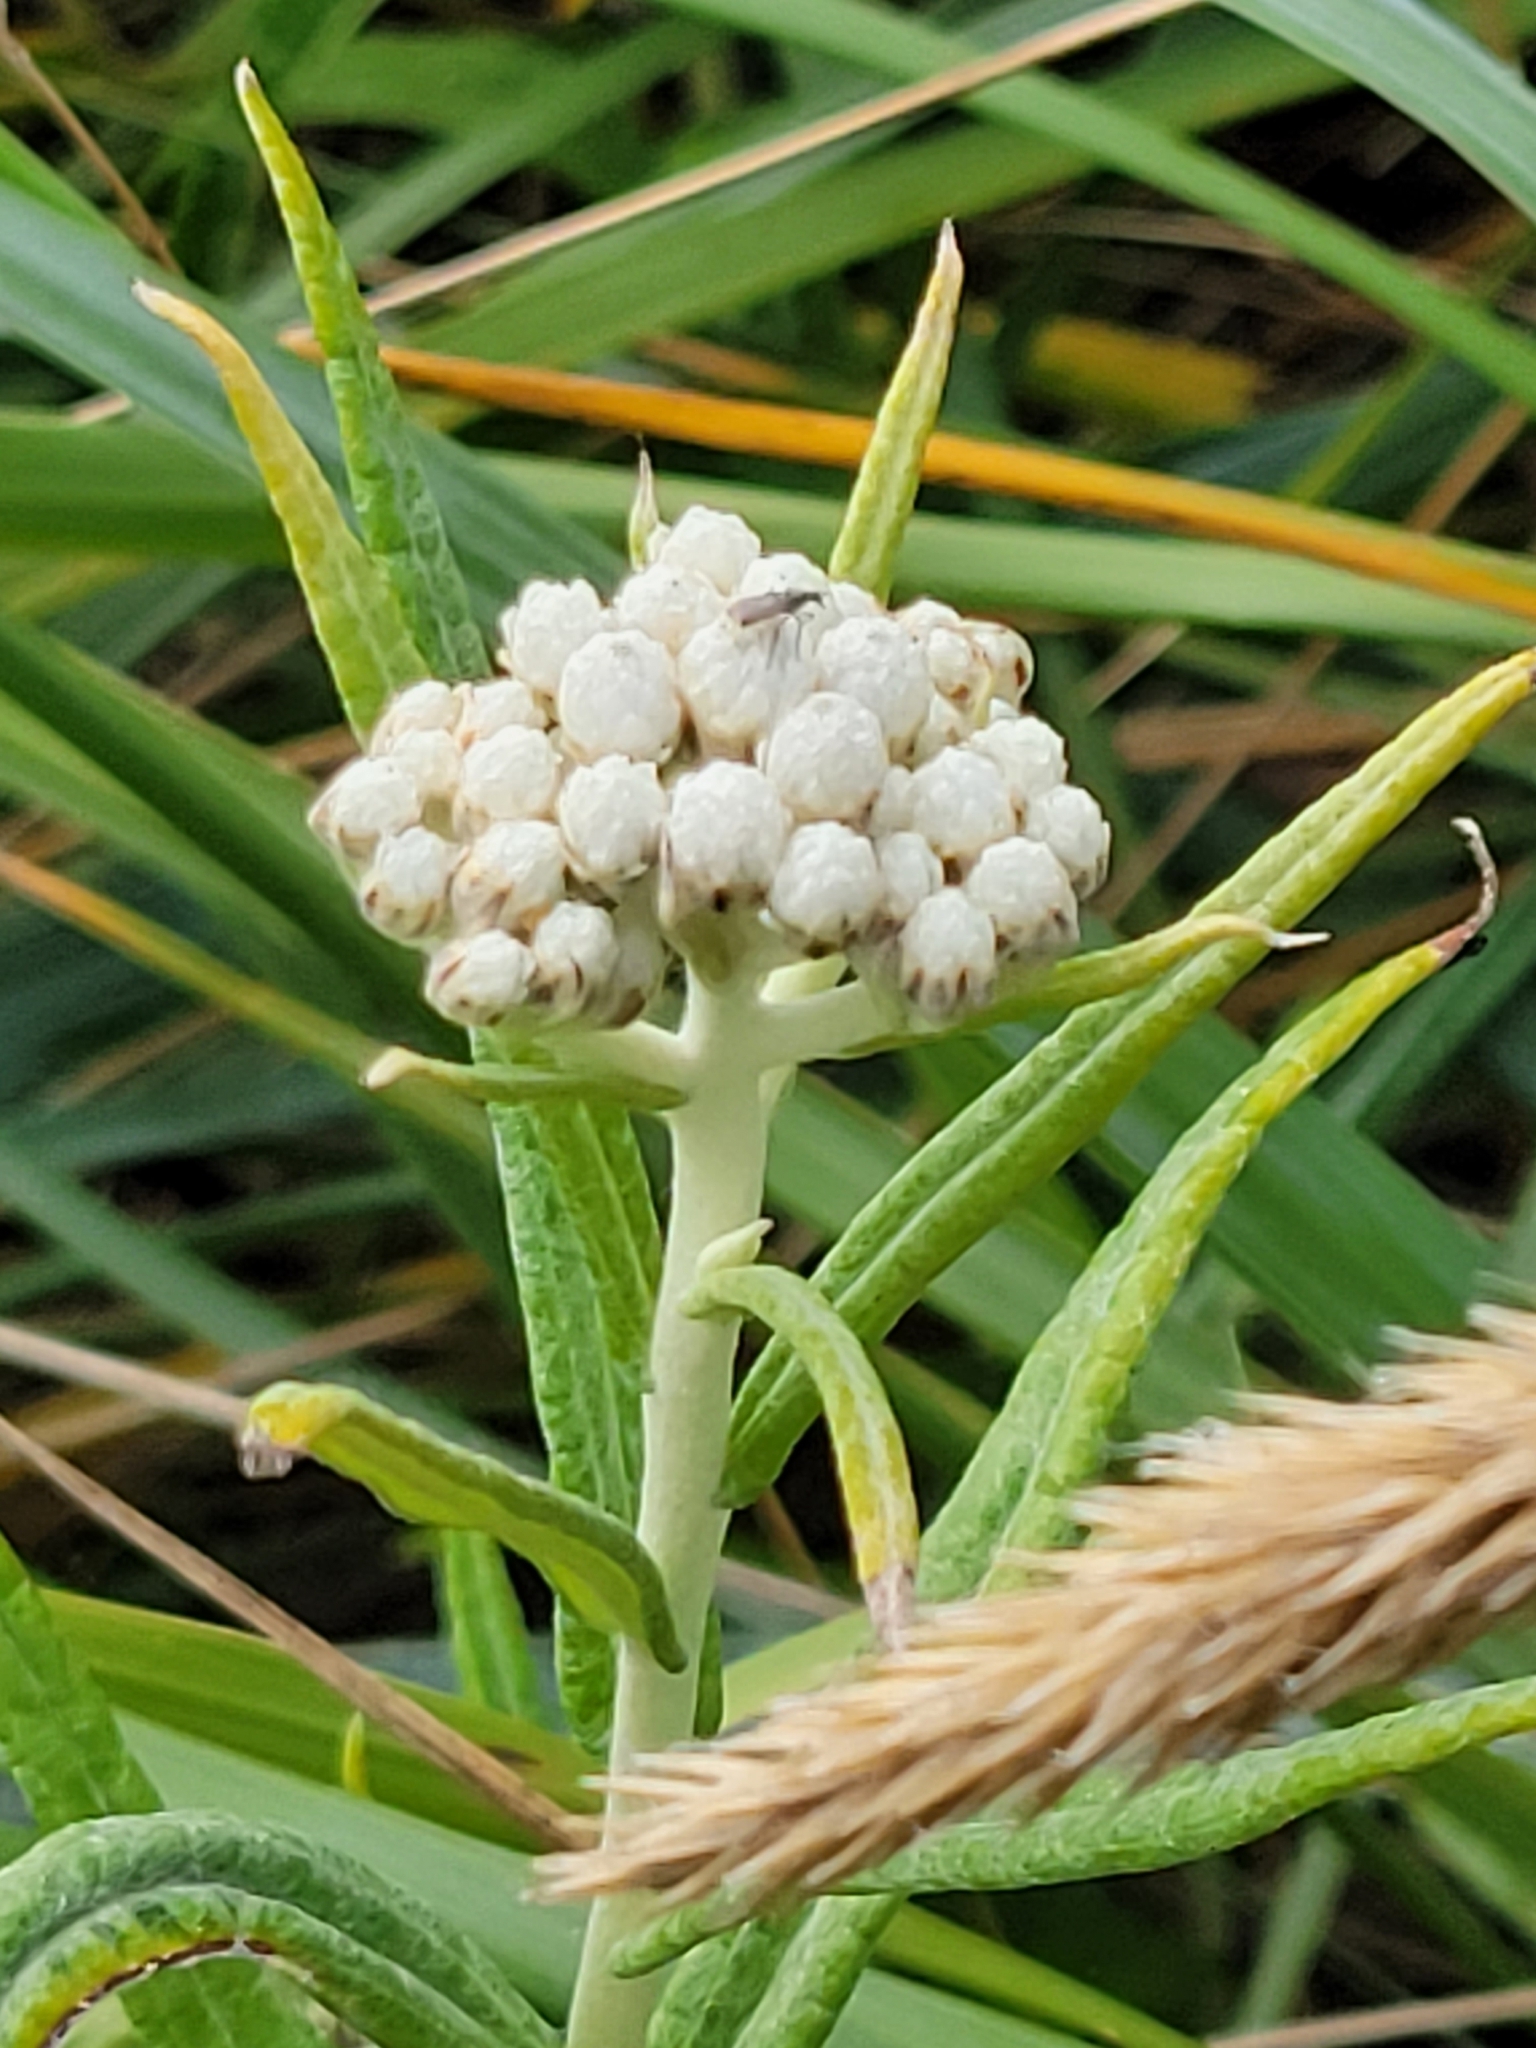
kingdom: Plantae
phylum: Tracheophyta
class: Magnoliopsida
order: Asterales
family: Asteraceae
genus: Anaphalis
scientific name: Anaphalis margaritacea
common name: Pearly everlasting
